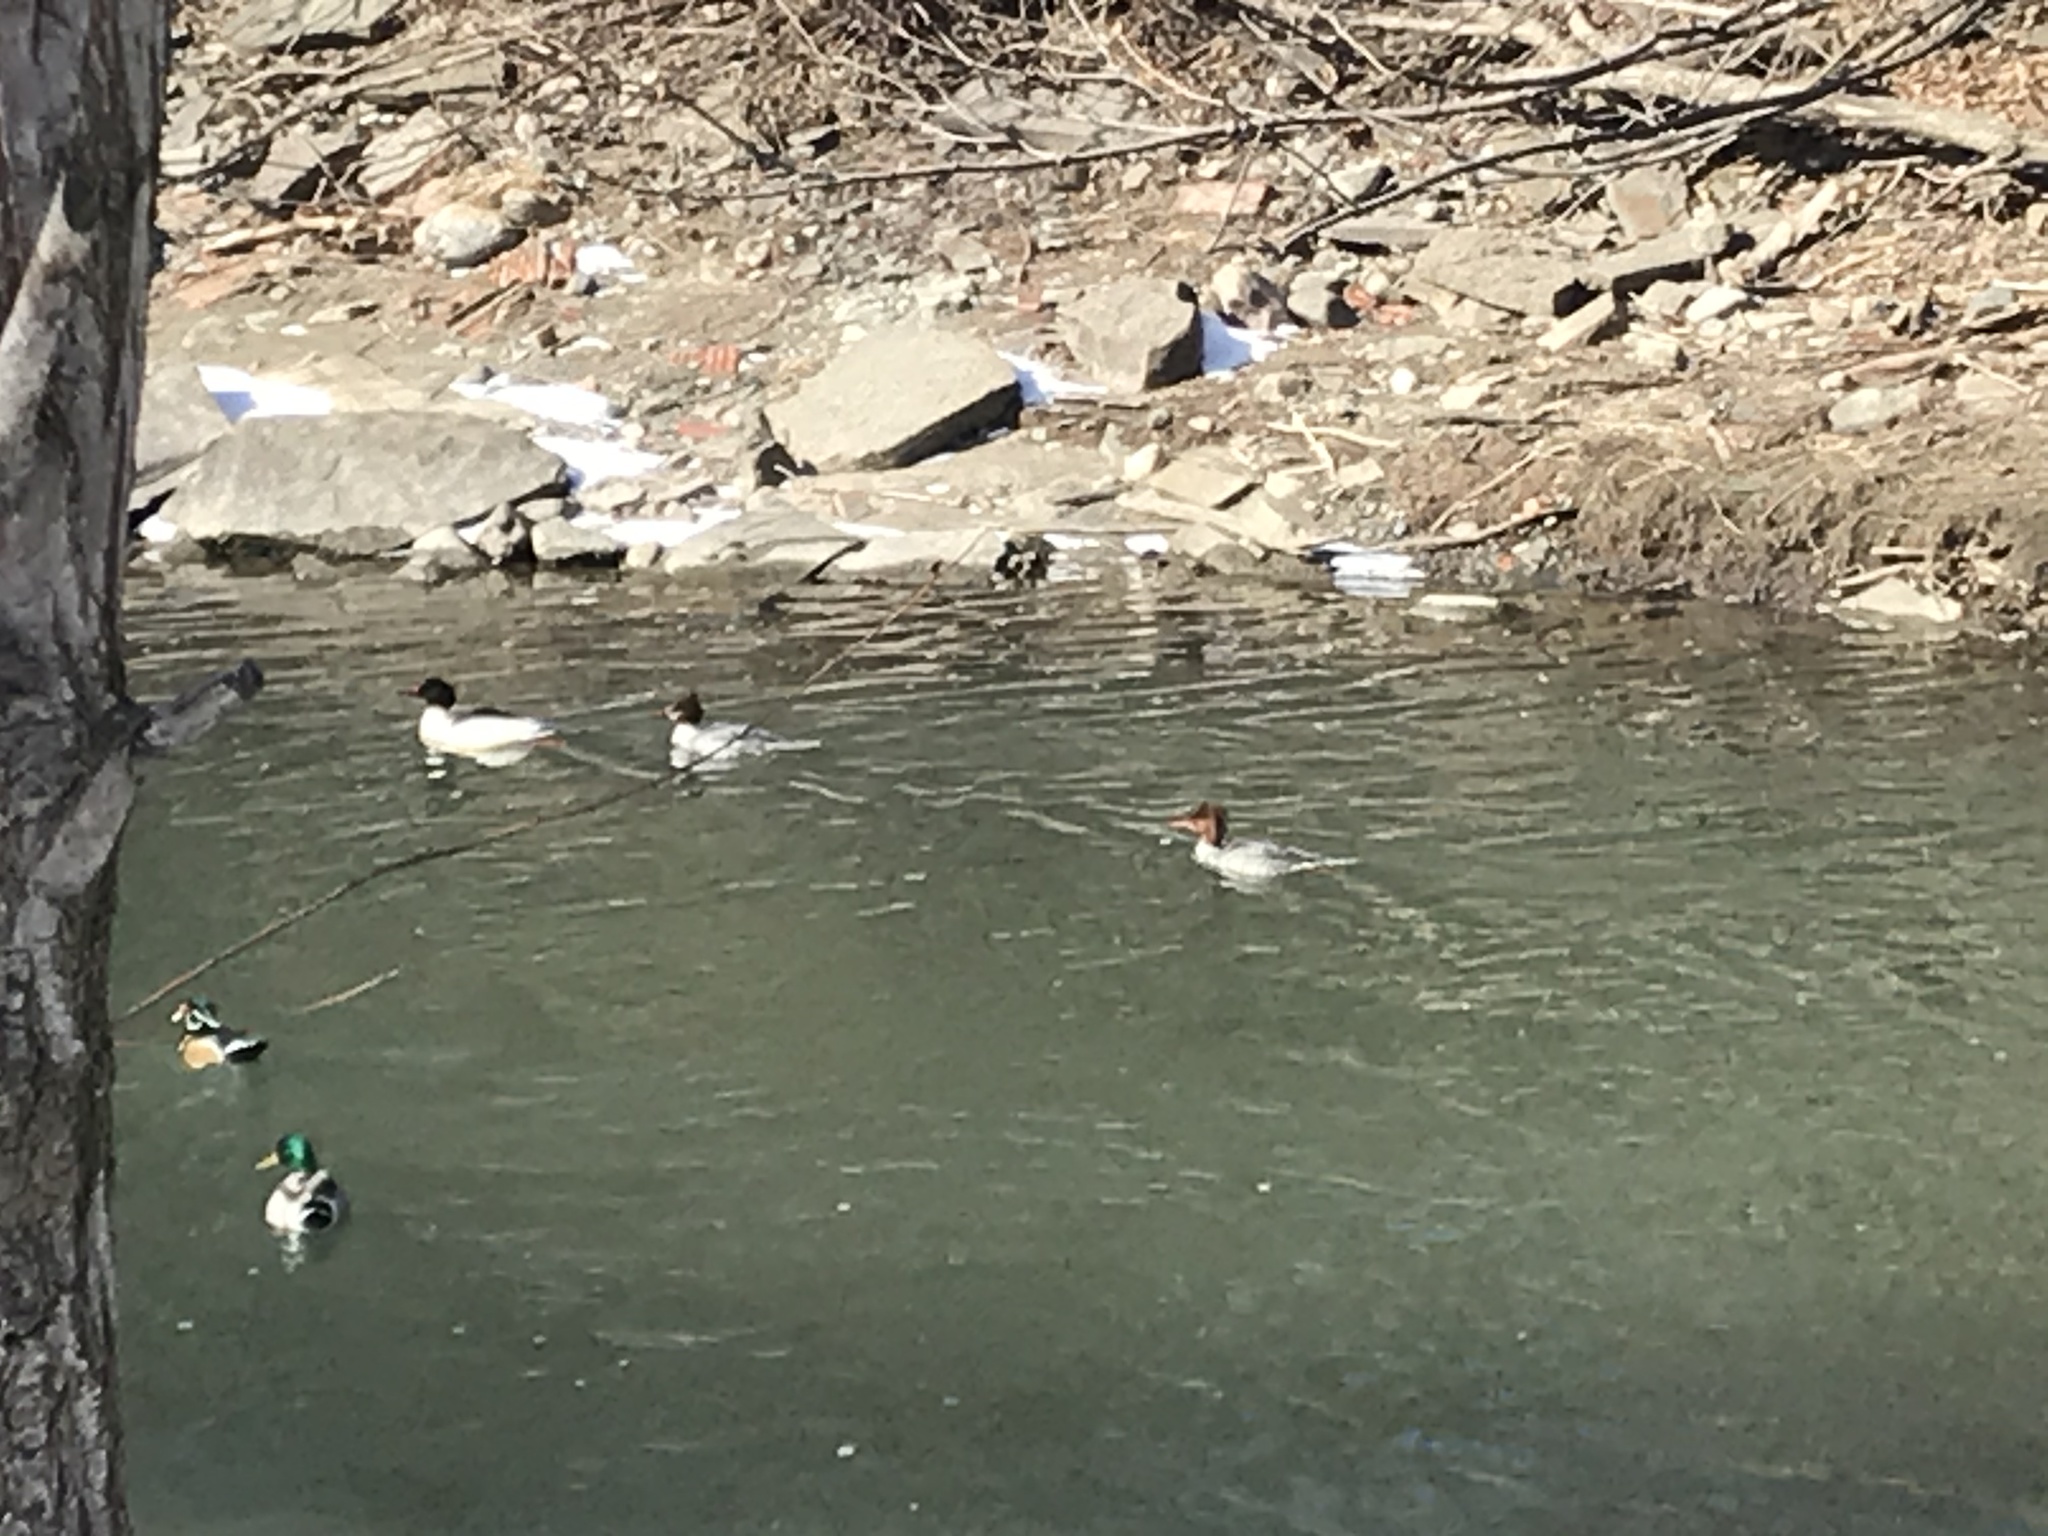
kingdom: Animalia
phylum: Chordata
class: Aves
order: Anseriformes
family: Anatidae
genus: Aix
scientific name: Aix sponsa
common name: Wood duck
